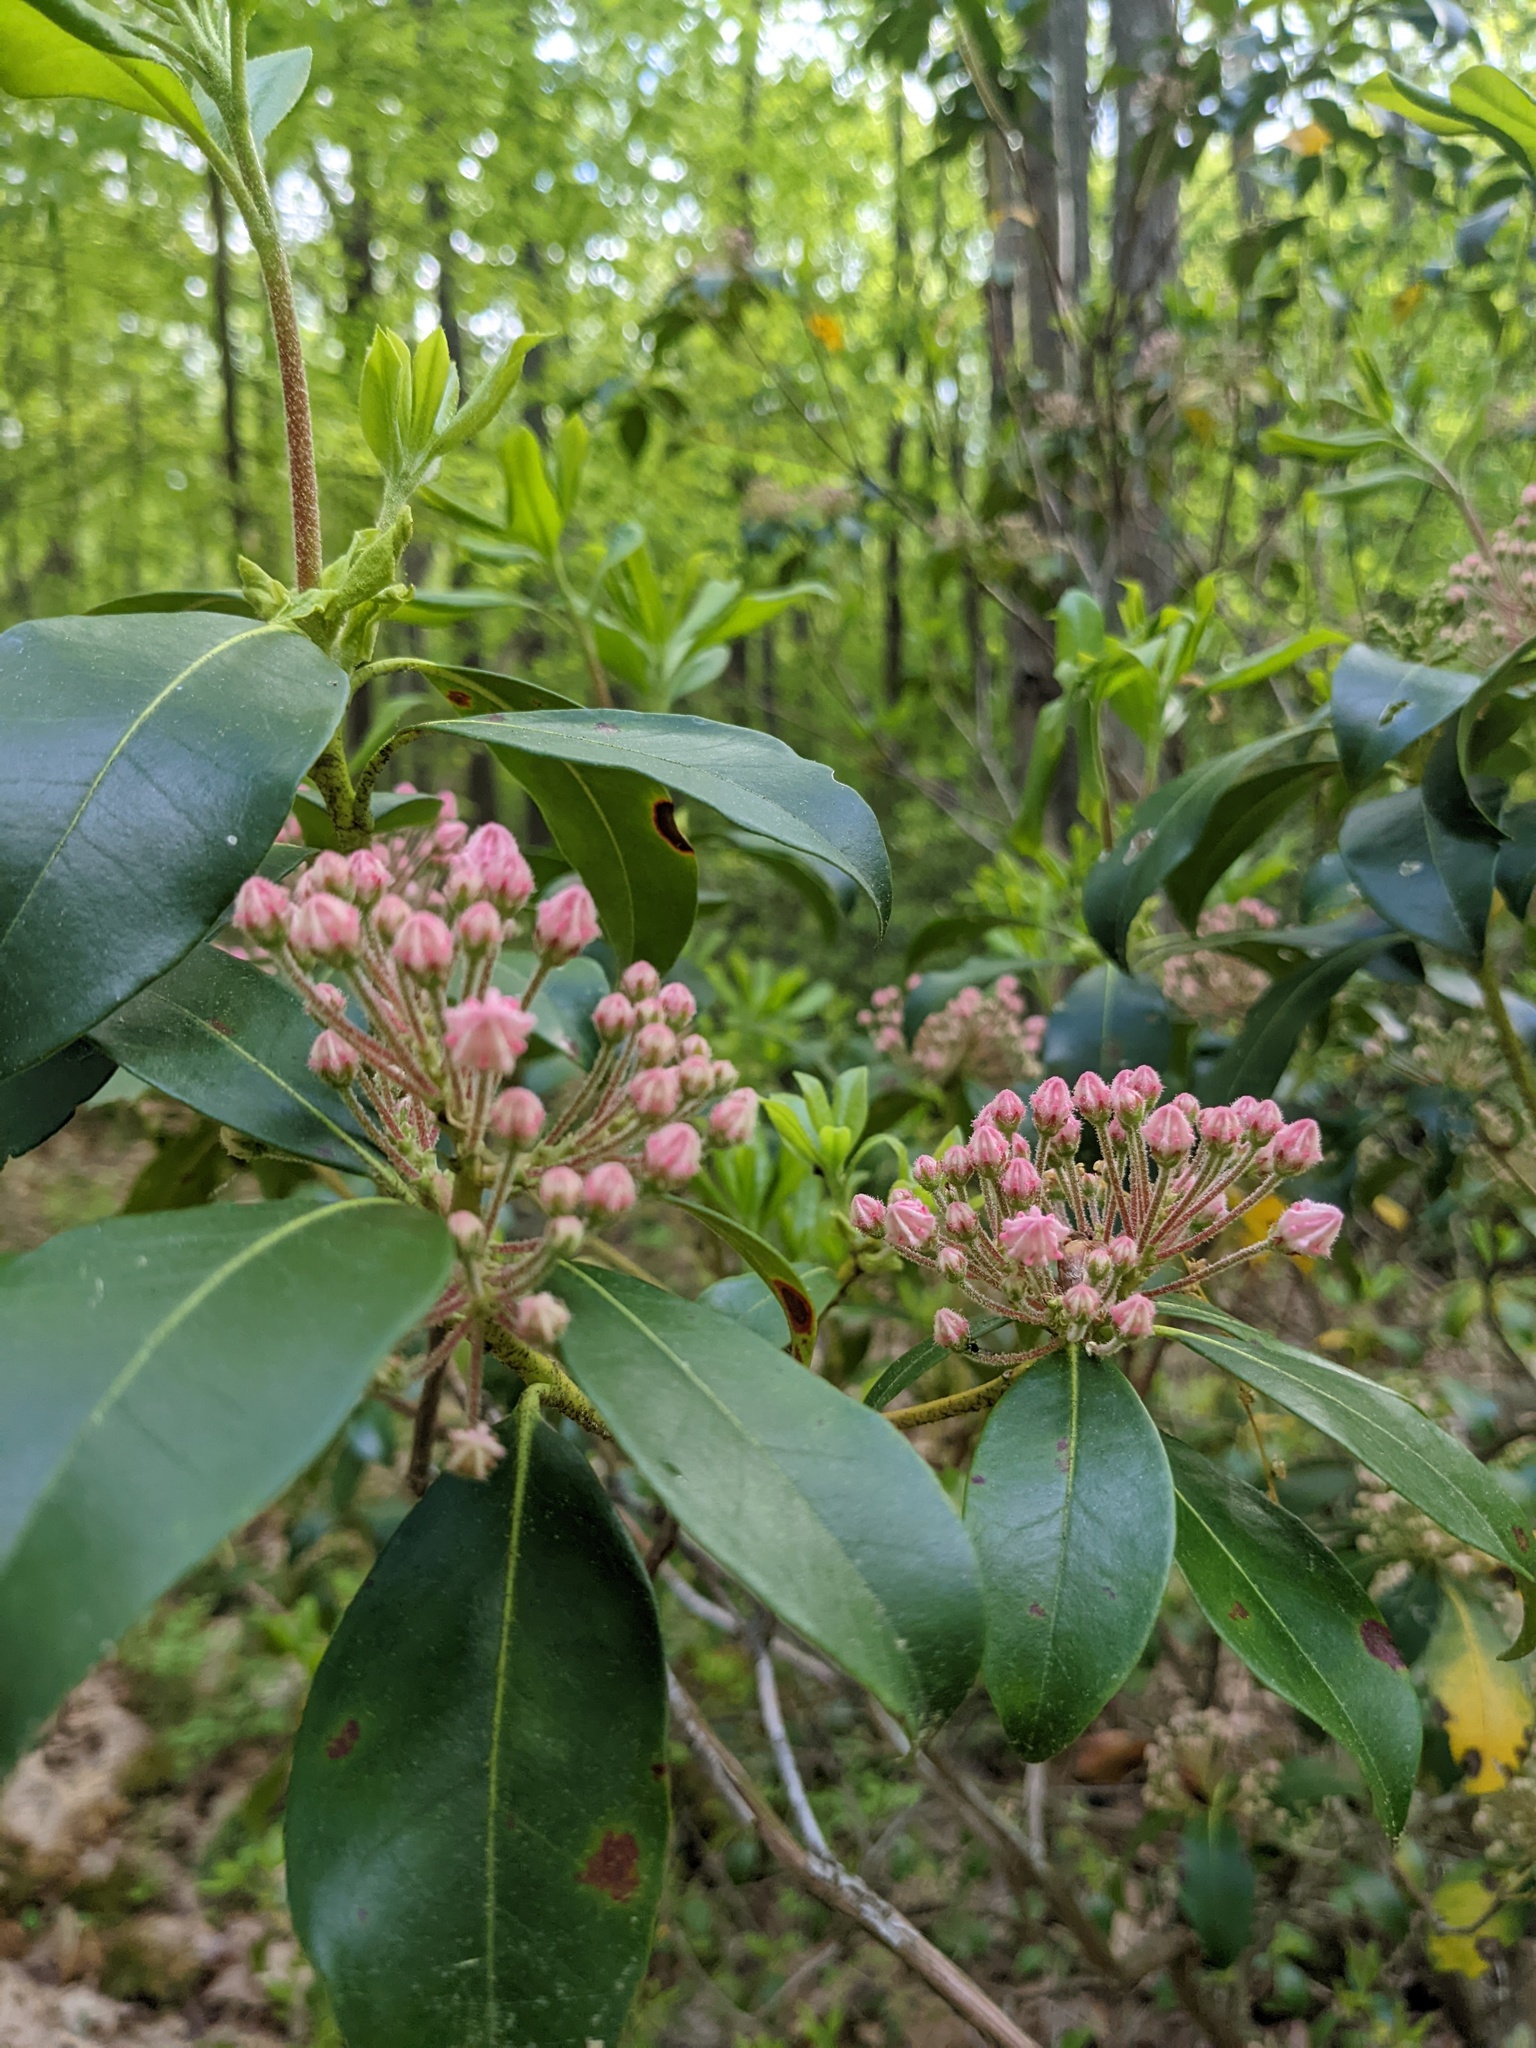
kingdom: Plantae
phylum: Tracheophyta
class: Magnoliopsida
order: Ericales
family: Ericaceae
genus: Kalmia
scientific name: Kalmia latifolia
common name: Mountain-laurel
